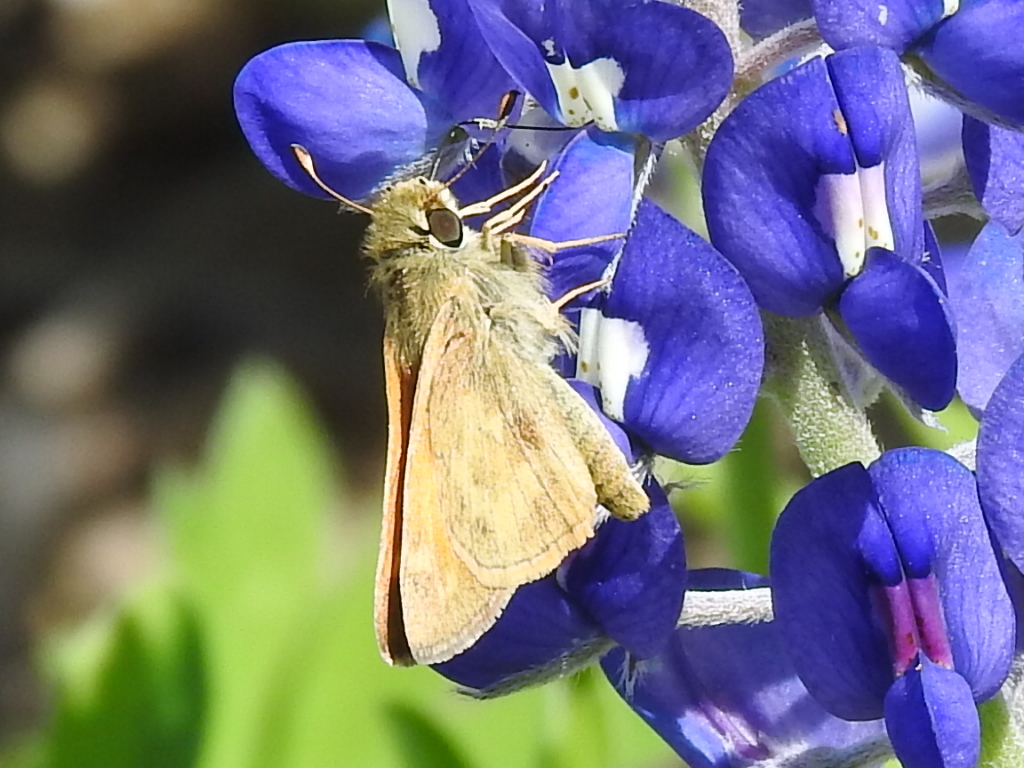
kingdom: Animalia
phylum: Arthropoda
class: Insecta
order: Lepidoptera
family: Hesperiidae
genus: Atalopedes
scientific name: Atalopedes
